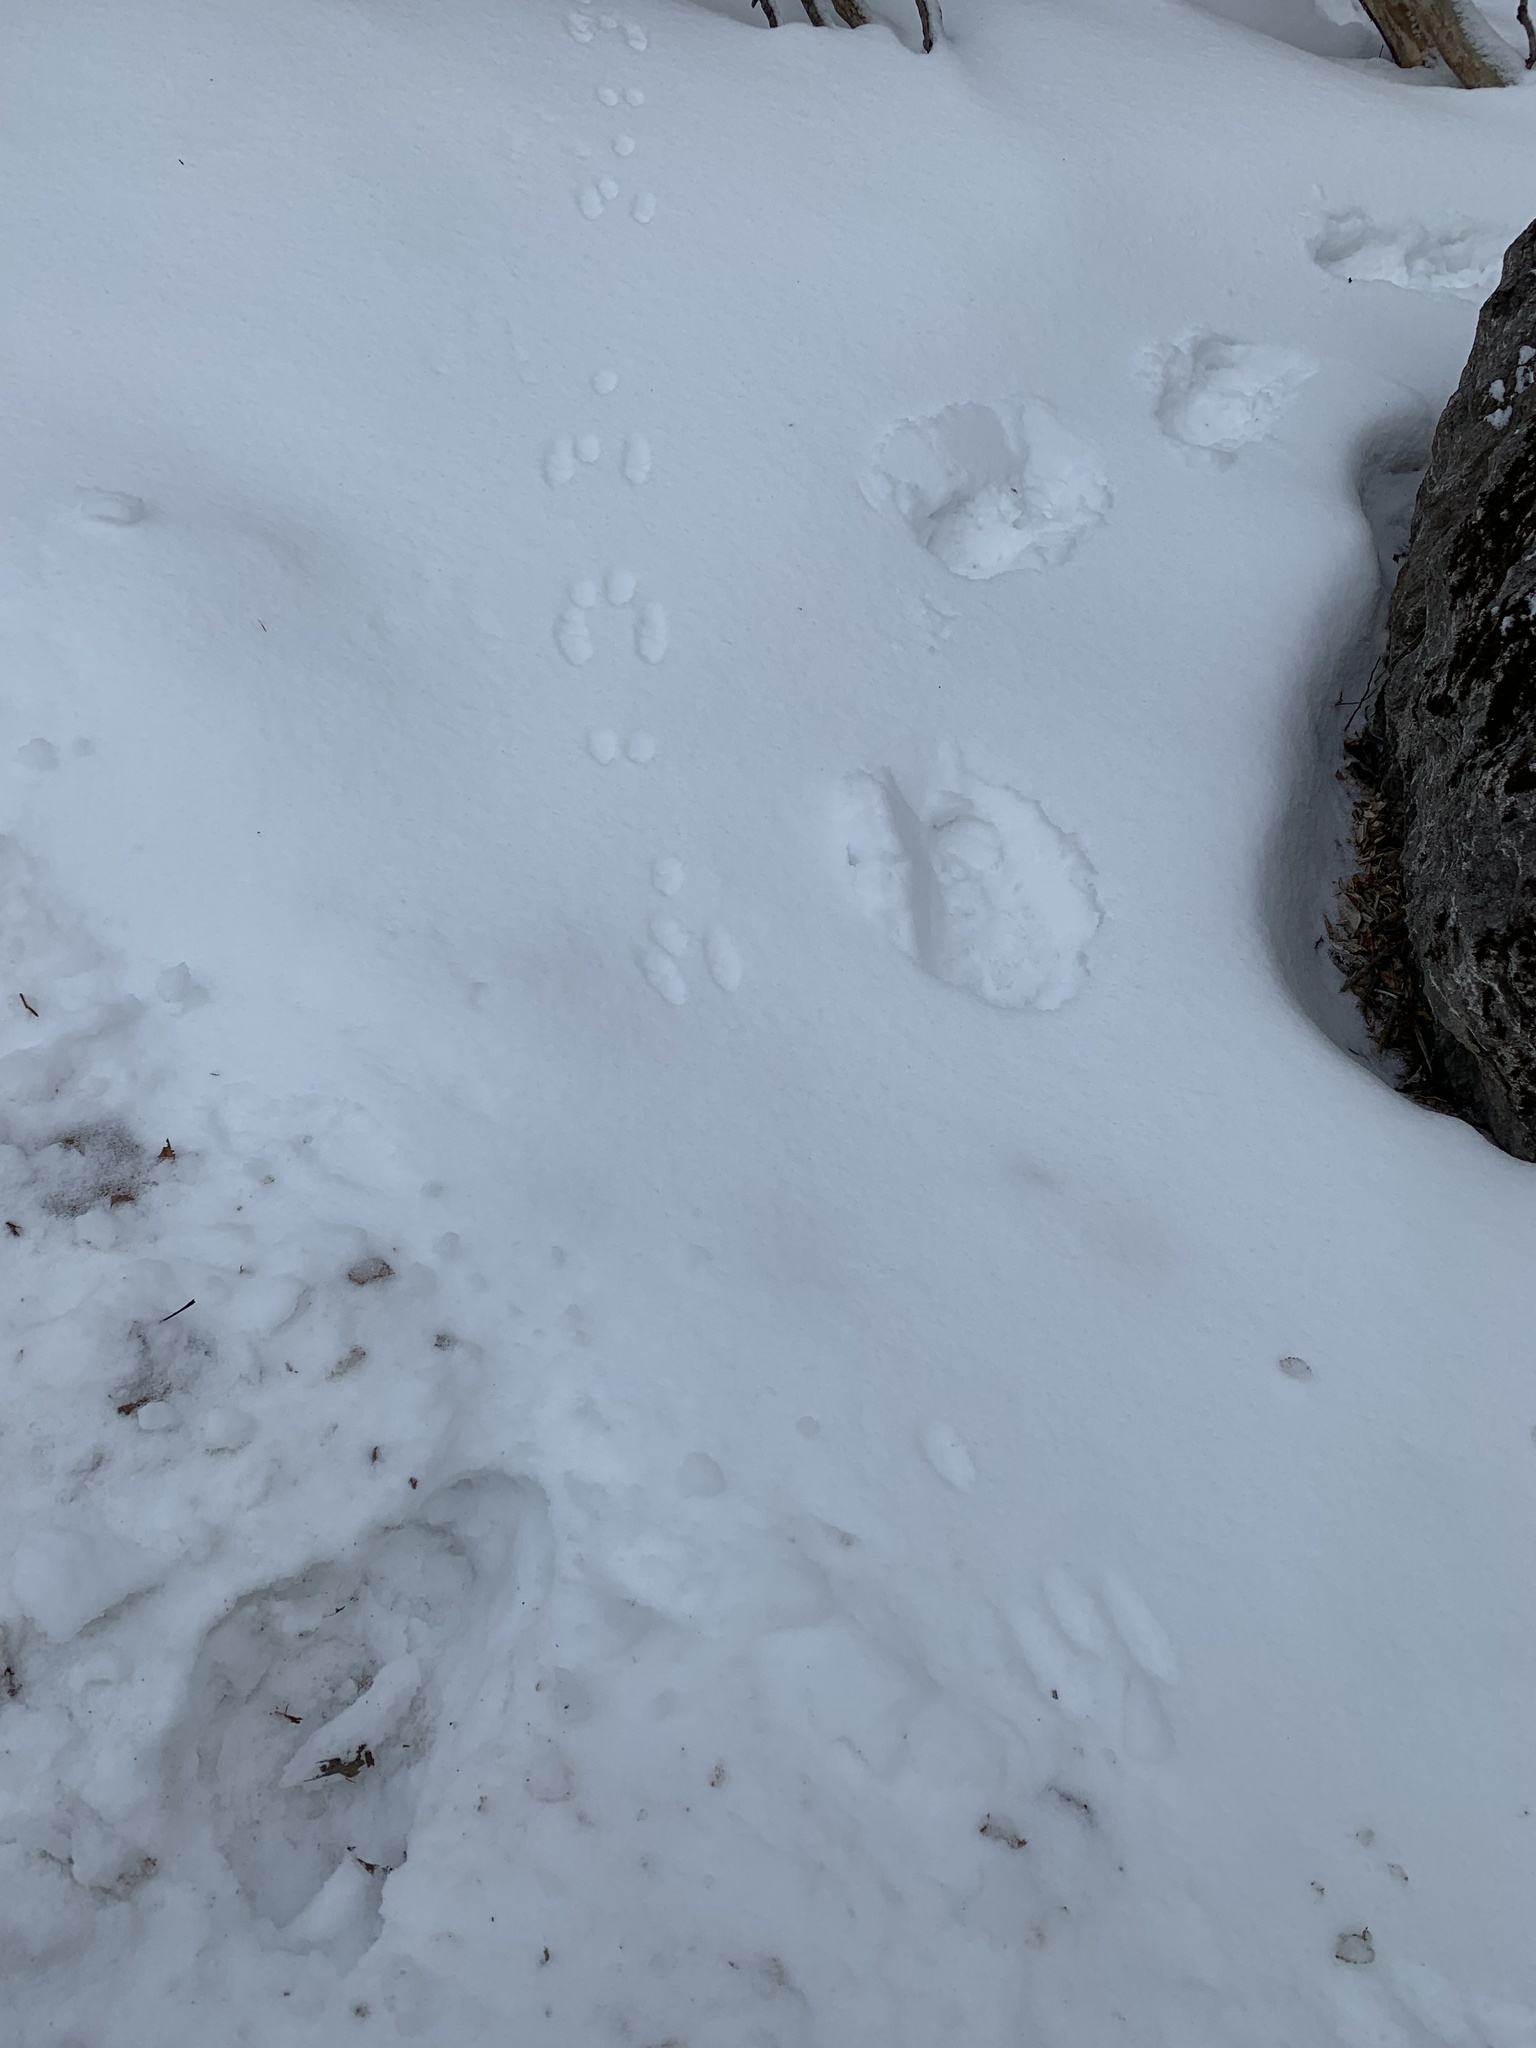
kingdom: Animalia
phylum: Chordata
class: Mammalia
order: Lagomorpha
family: Leporidae
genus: Sylvilagus
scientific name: Sylvilagus floridanus
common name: Eastern cottontail
